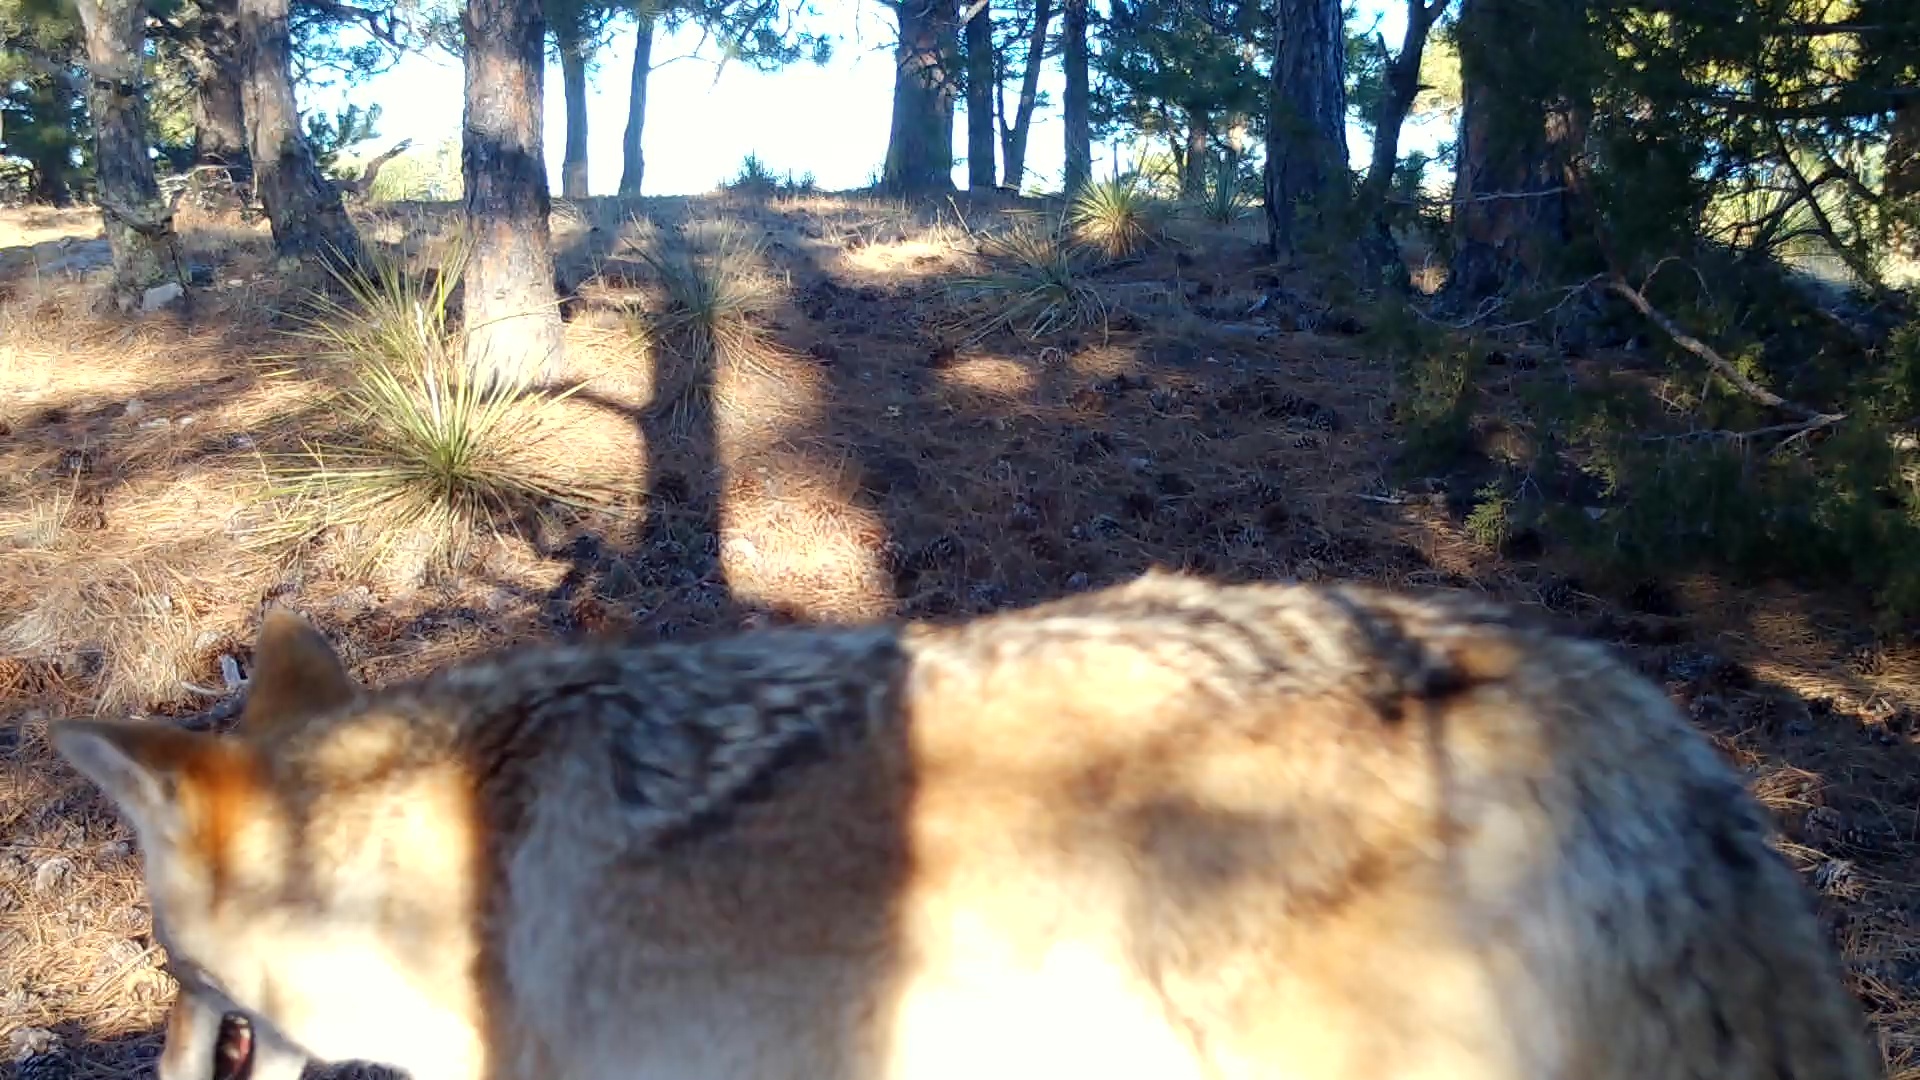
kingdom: Animalia
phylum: Chordata
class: Mammalia
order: Carnivora
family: Canidae
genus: Canis
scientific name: Canis latrans
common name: Coyote
